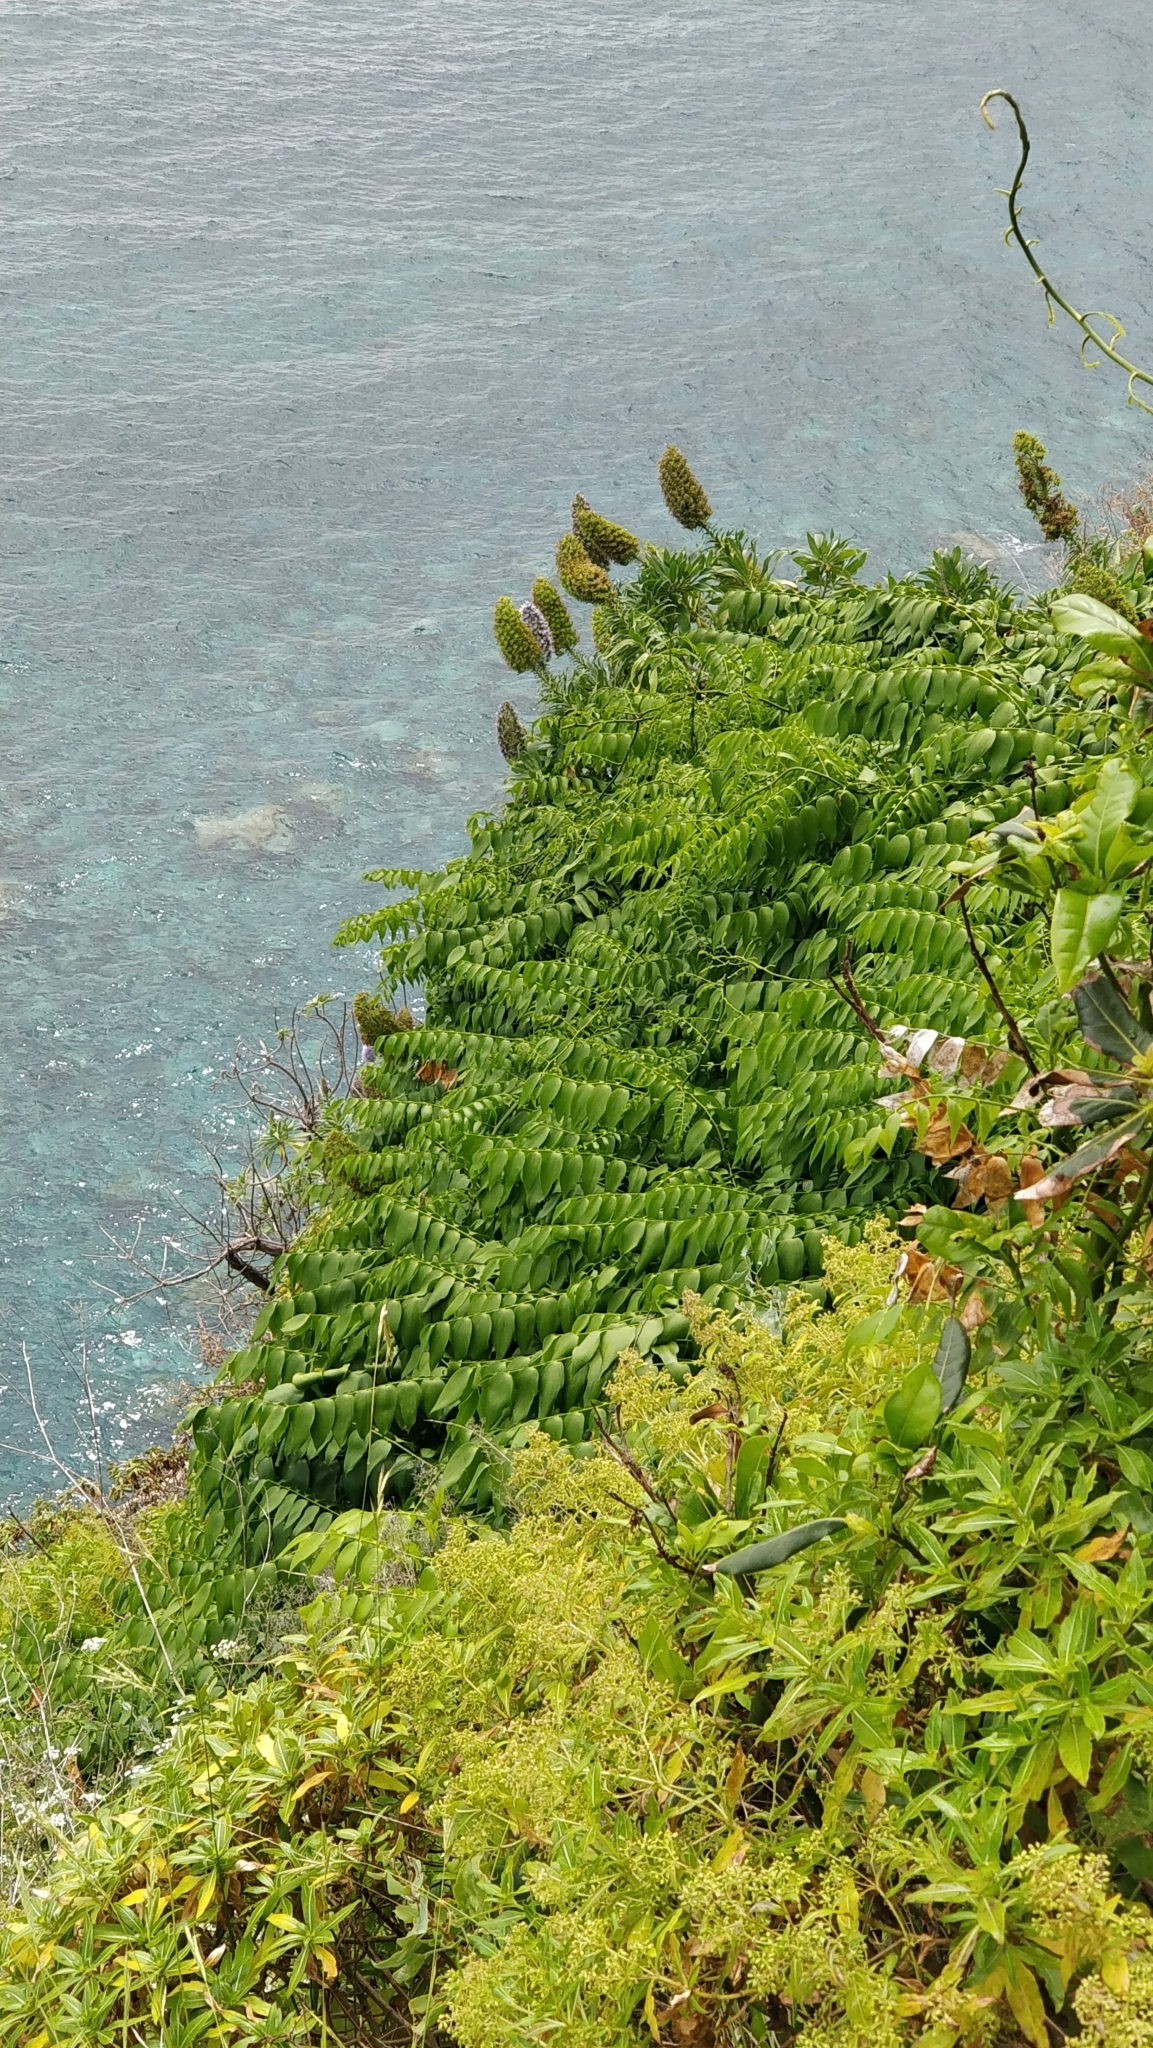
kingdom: Plantae
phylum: Tracheophyta
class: Liliopsida
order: Asparagales
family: Asparagaceae
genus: Semele
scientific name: Semele androgyna
